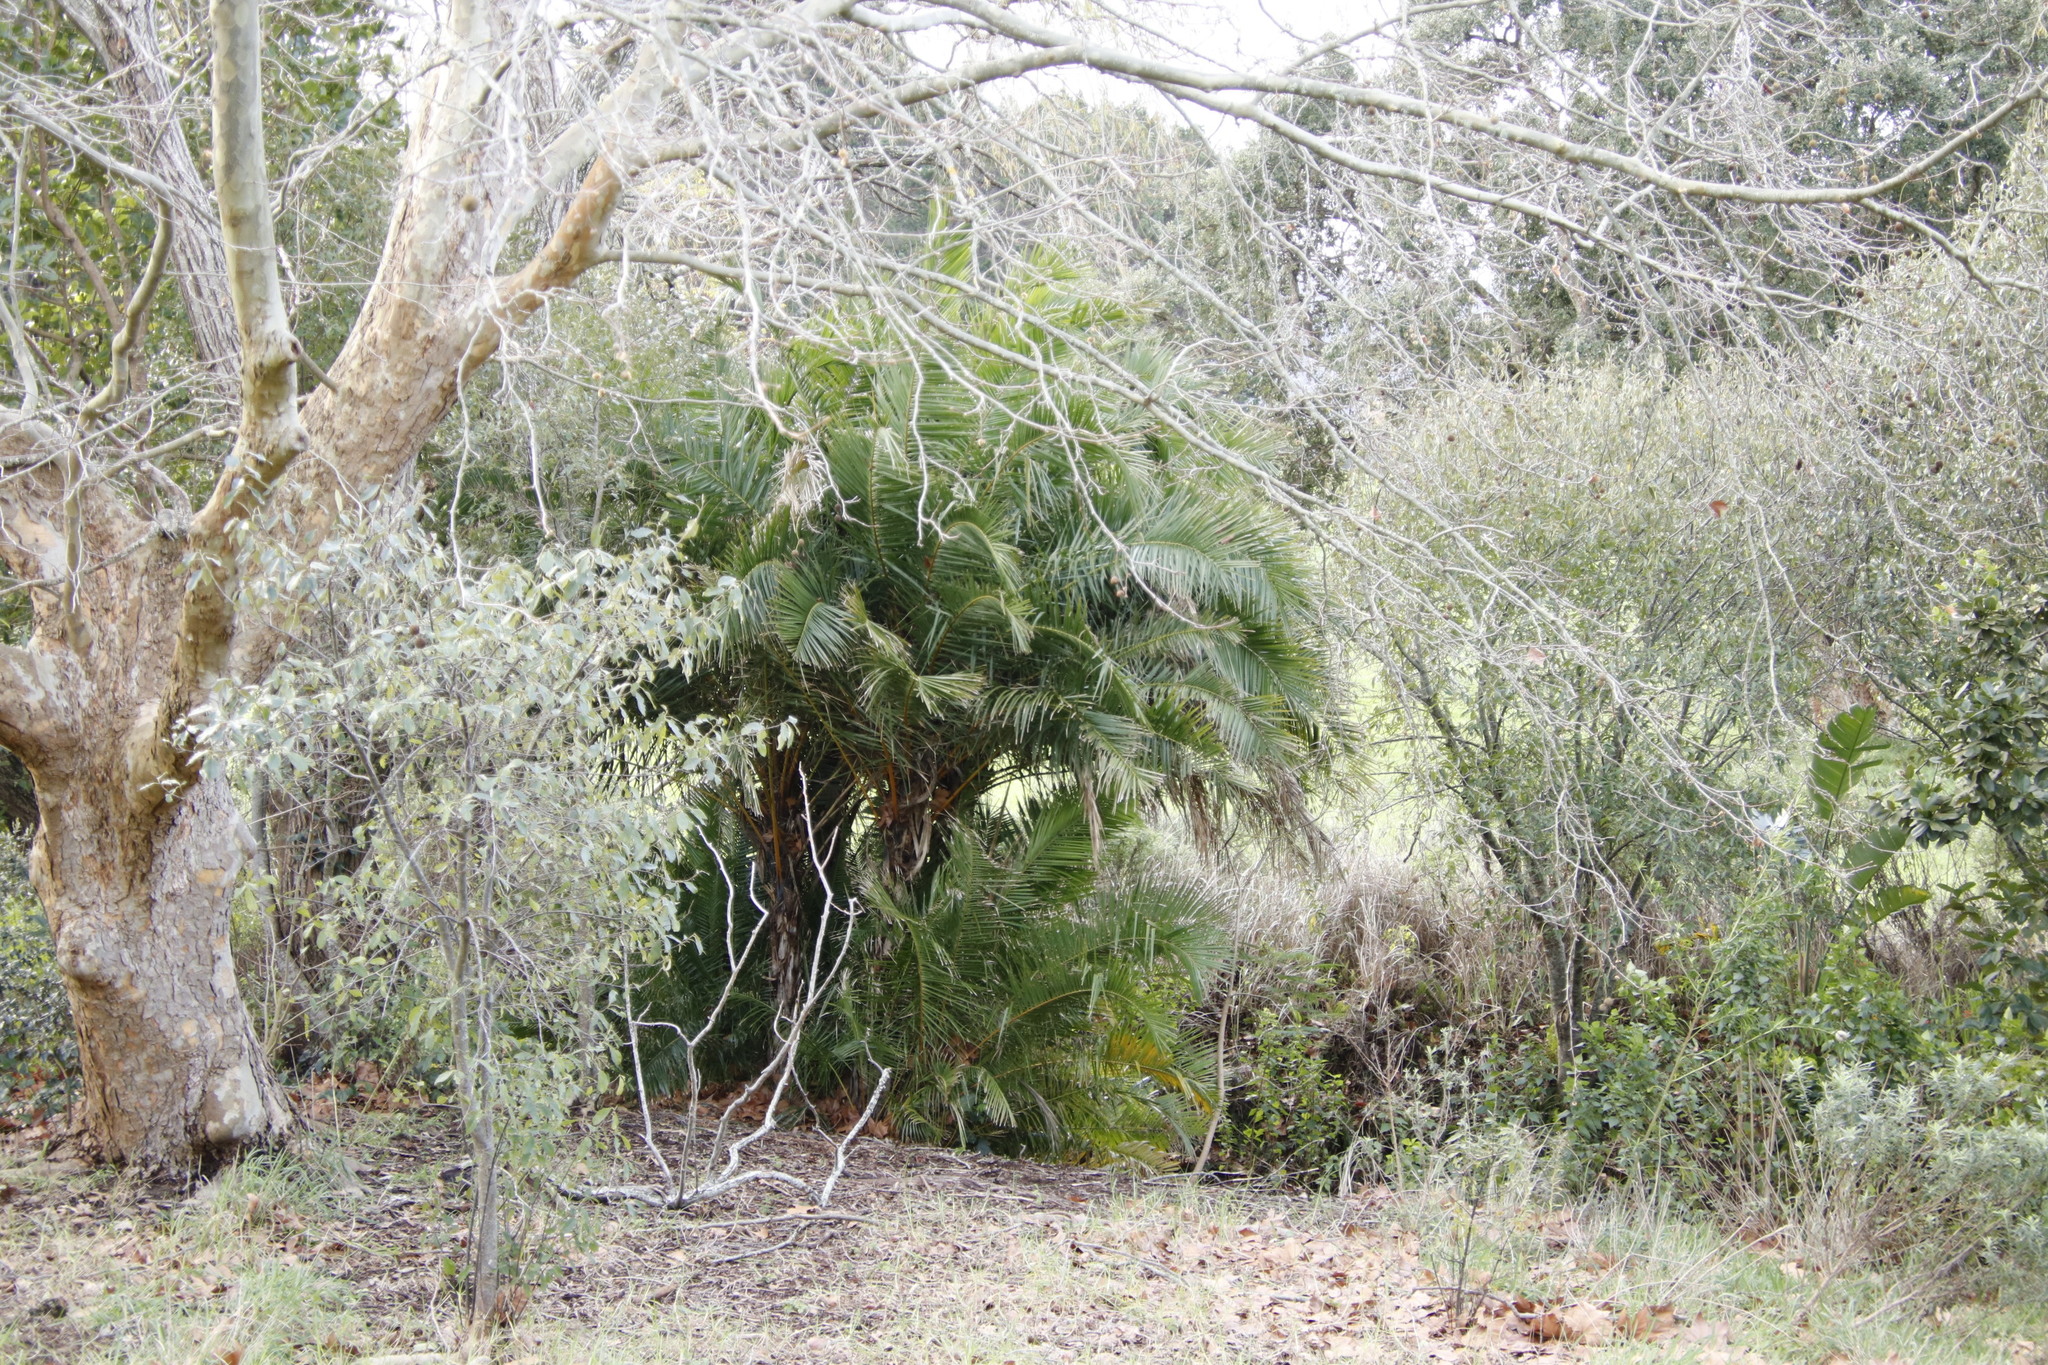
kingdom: Plantae
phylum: Tracheophyta
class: Liliopsida
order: Arecales
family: Arecaceae
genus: Phoenix
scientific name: Phoenix reclinata
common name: Senegal date palm
